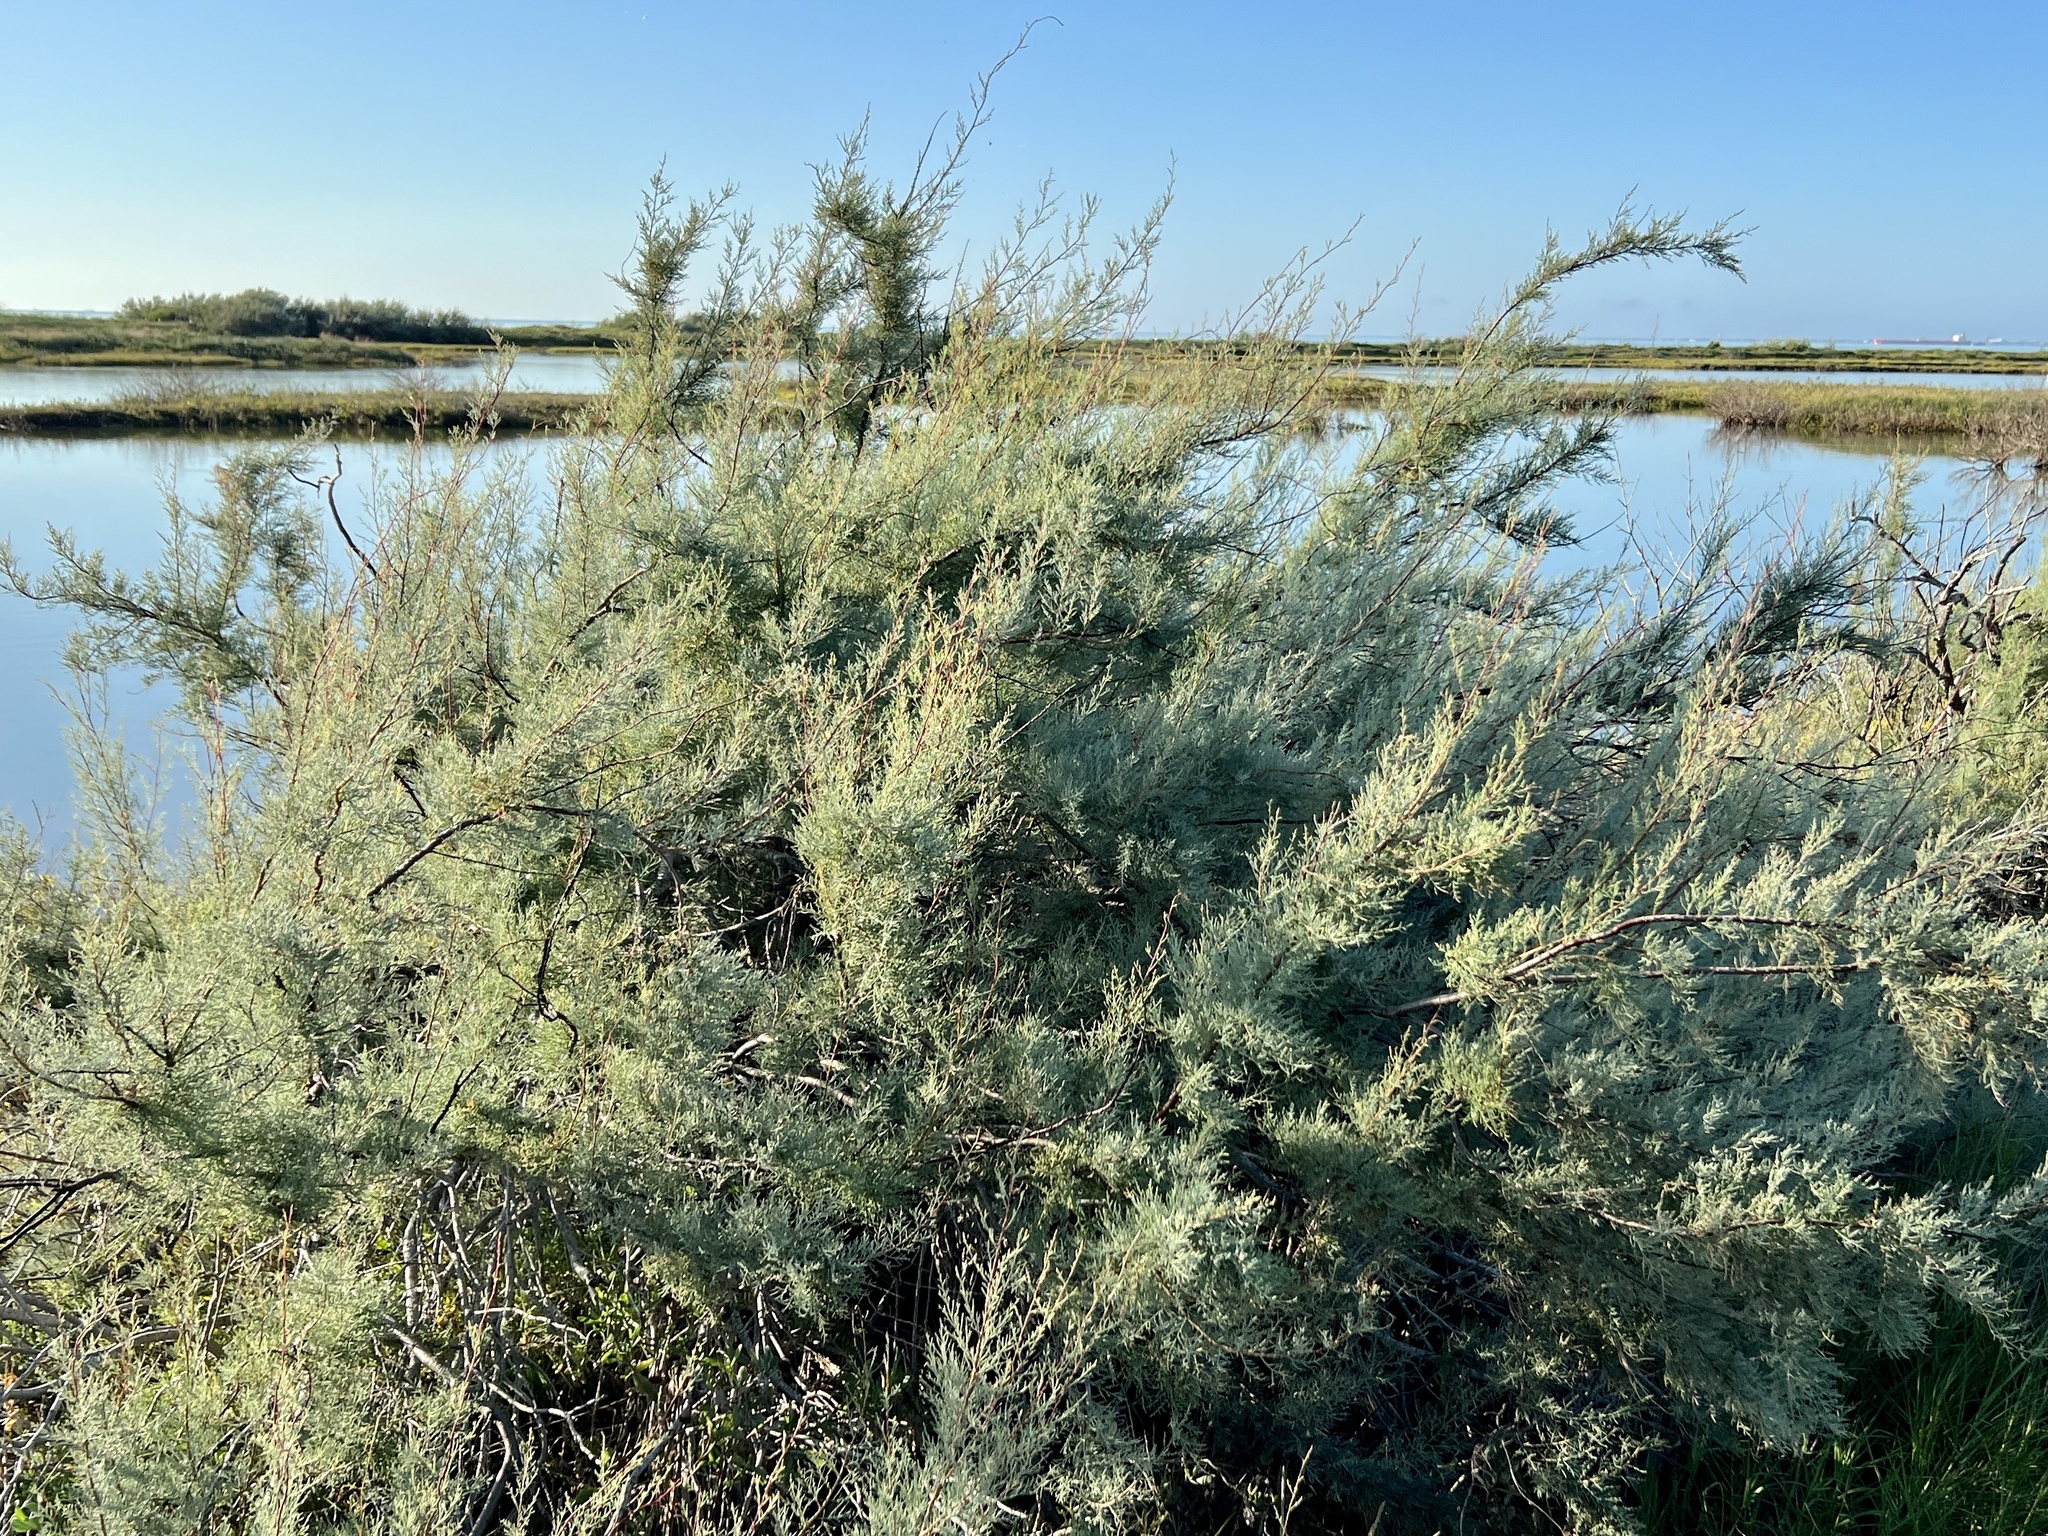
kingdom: Plantae
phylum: Tracheophyta
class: Magnoliopsida
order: Caryophyllales
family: Tamaricaceae
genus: Tamarix
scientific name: Tamarix
